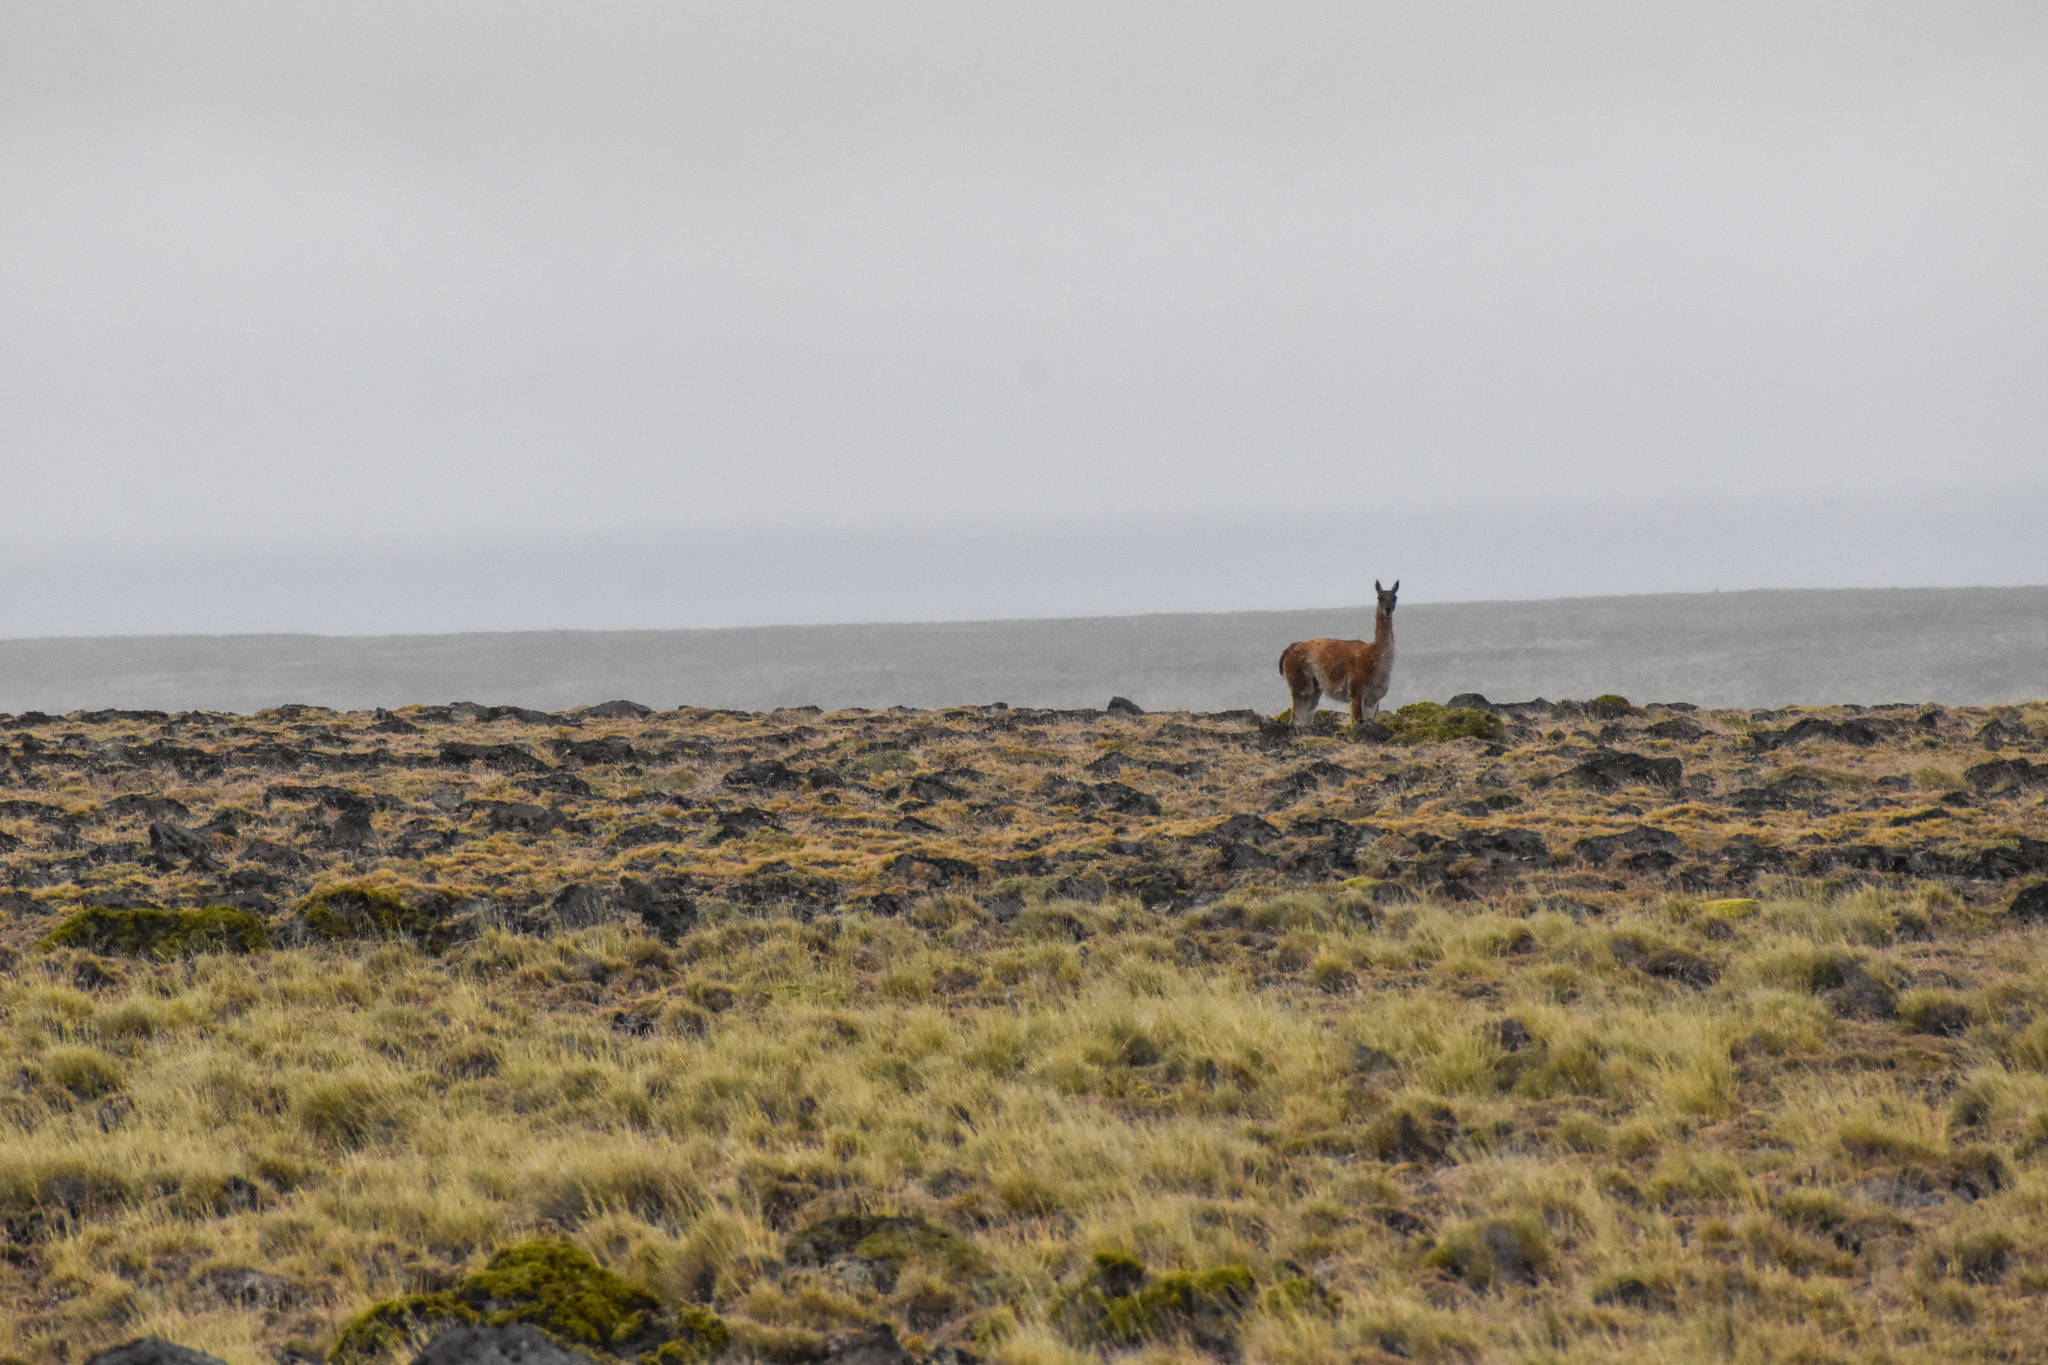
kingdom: Animalia
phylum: Chordata
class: Mammalia
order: Artiodactyla
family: Camelidae
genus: Lama
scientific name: Lama glama
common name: Llama
